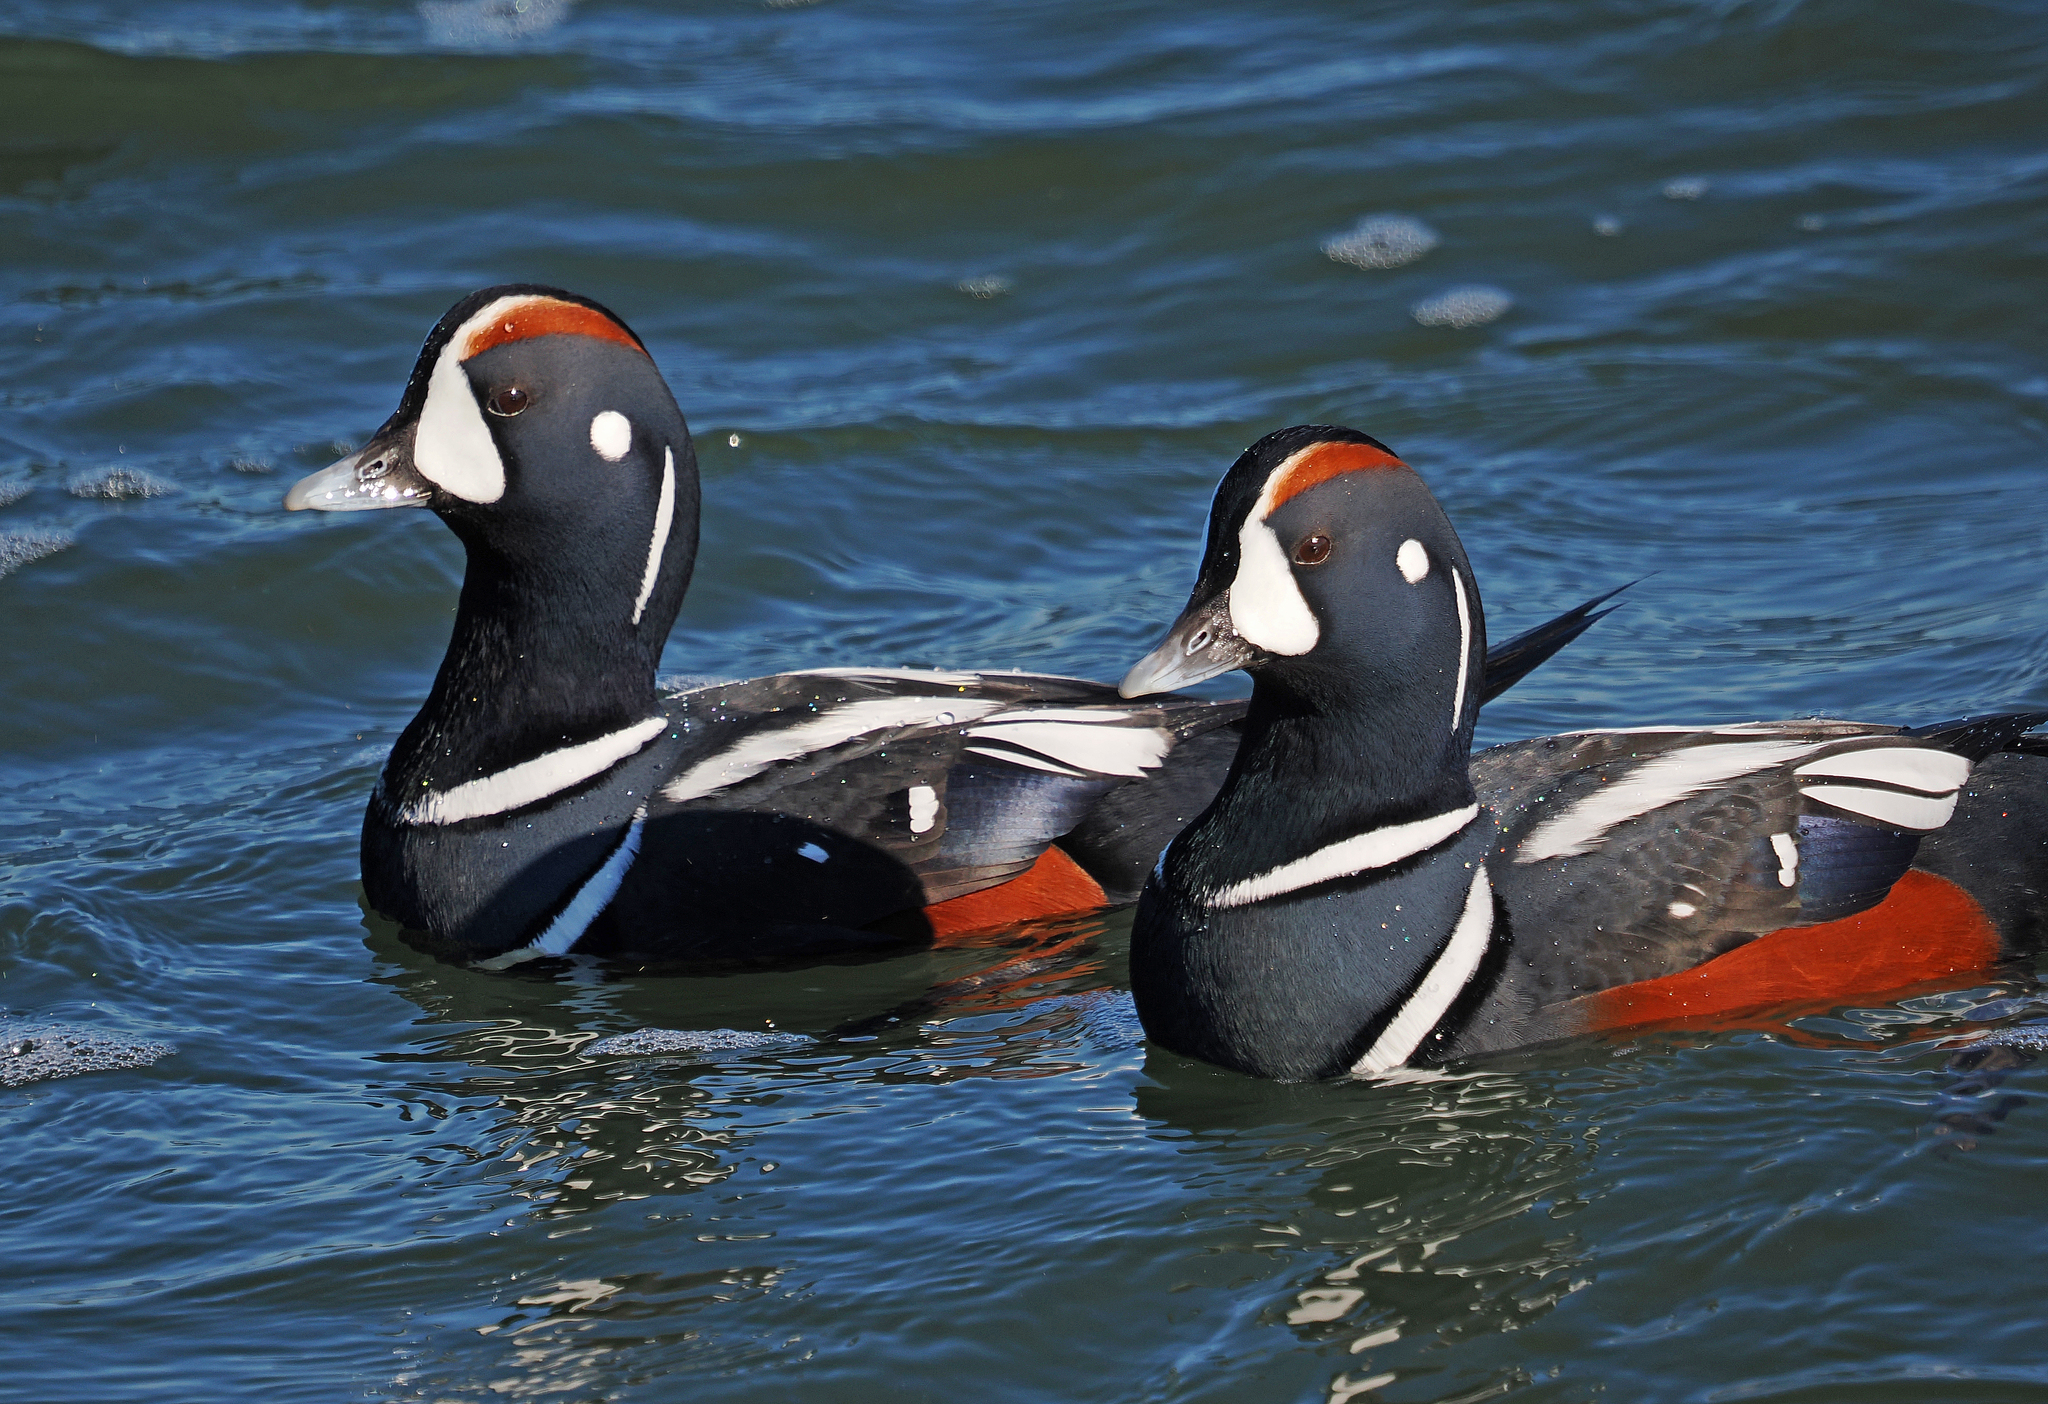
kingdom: Animalia
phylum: Chordata
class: Aves
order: Anseriformes
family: Anatidae
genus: Histrionicus
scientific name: Histrionicus histrionicus
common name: Harlequin duck
